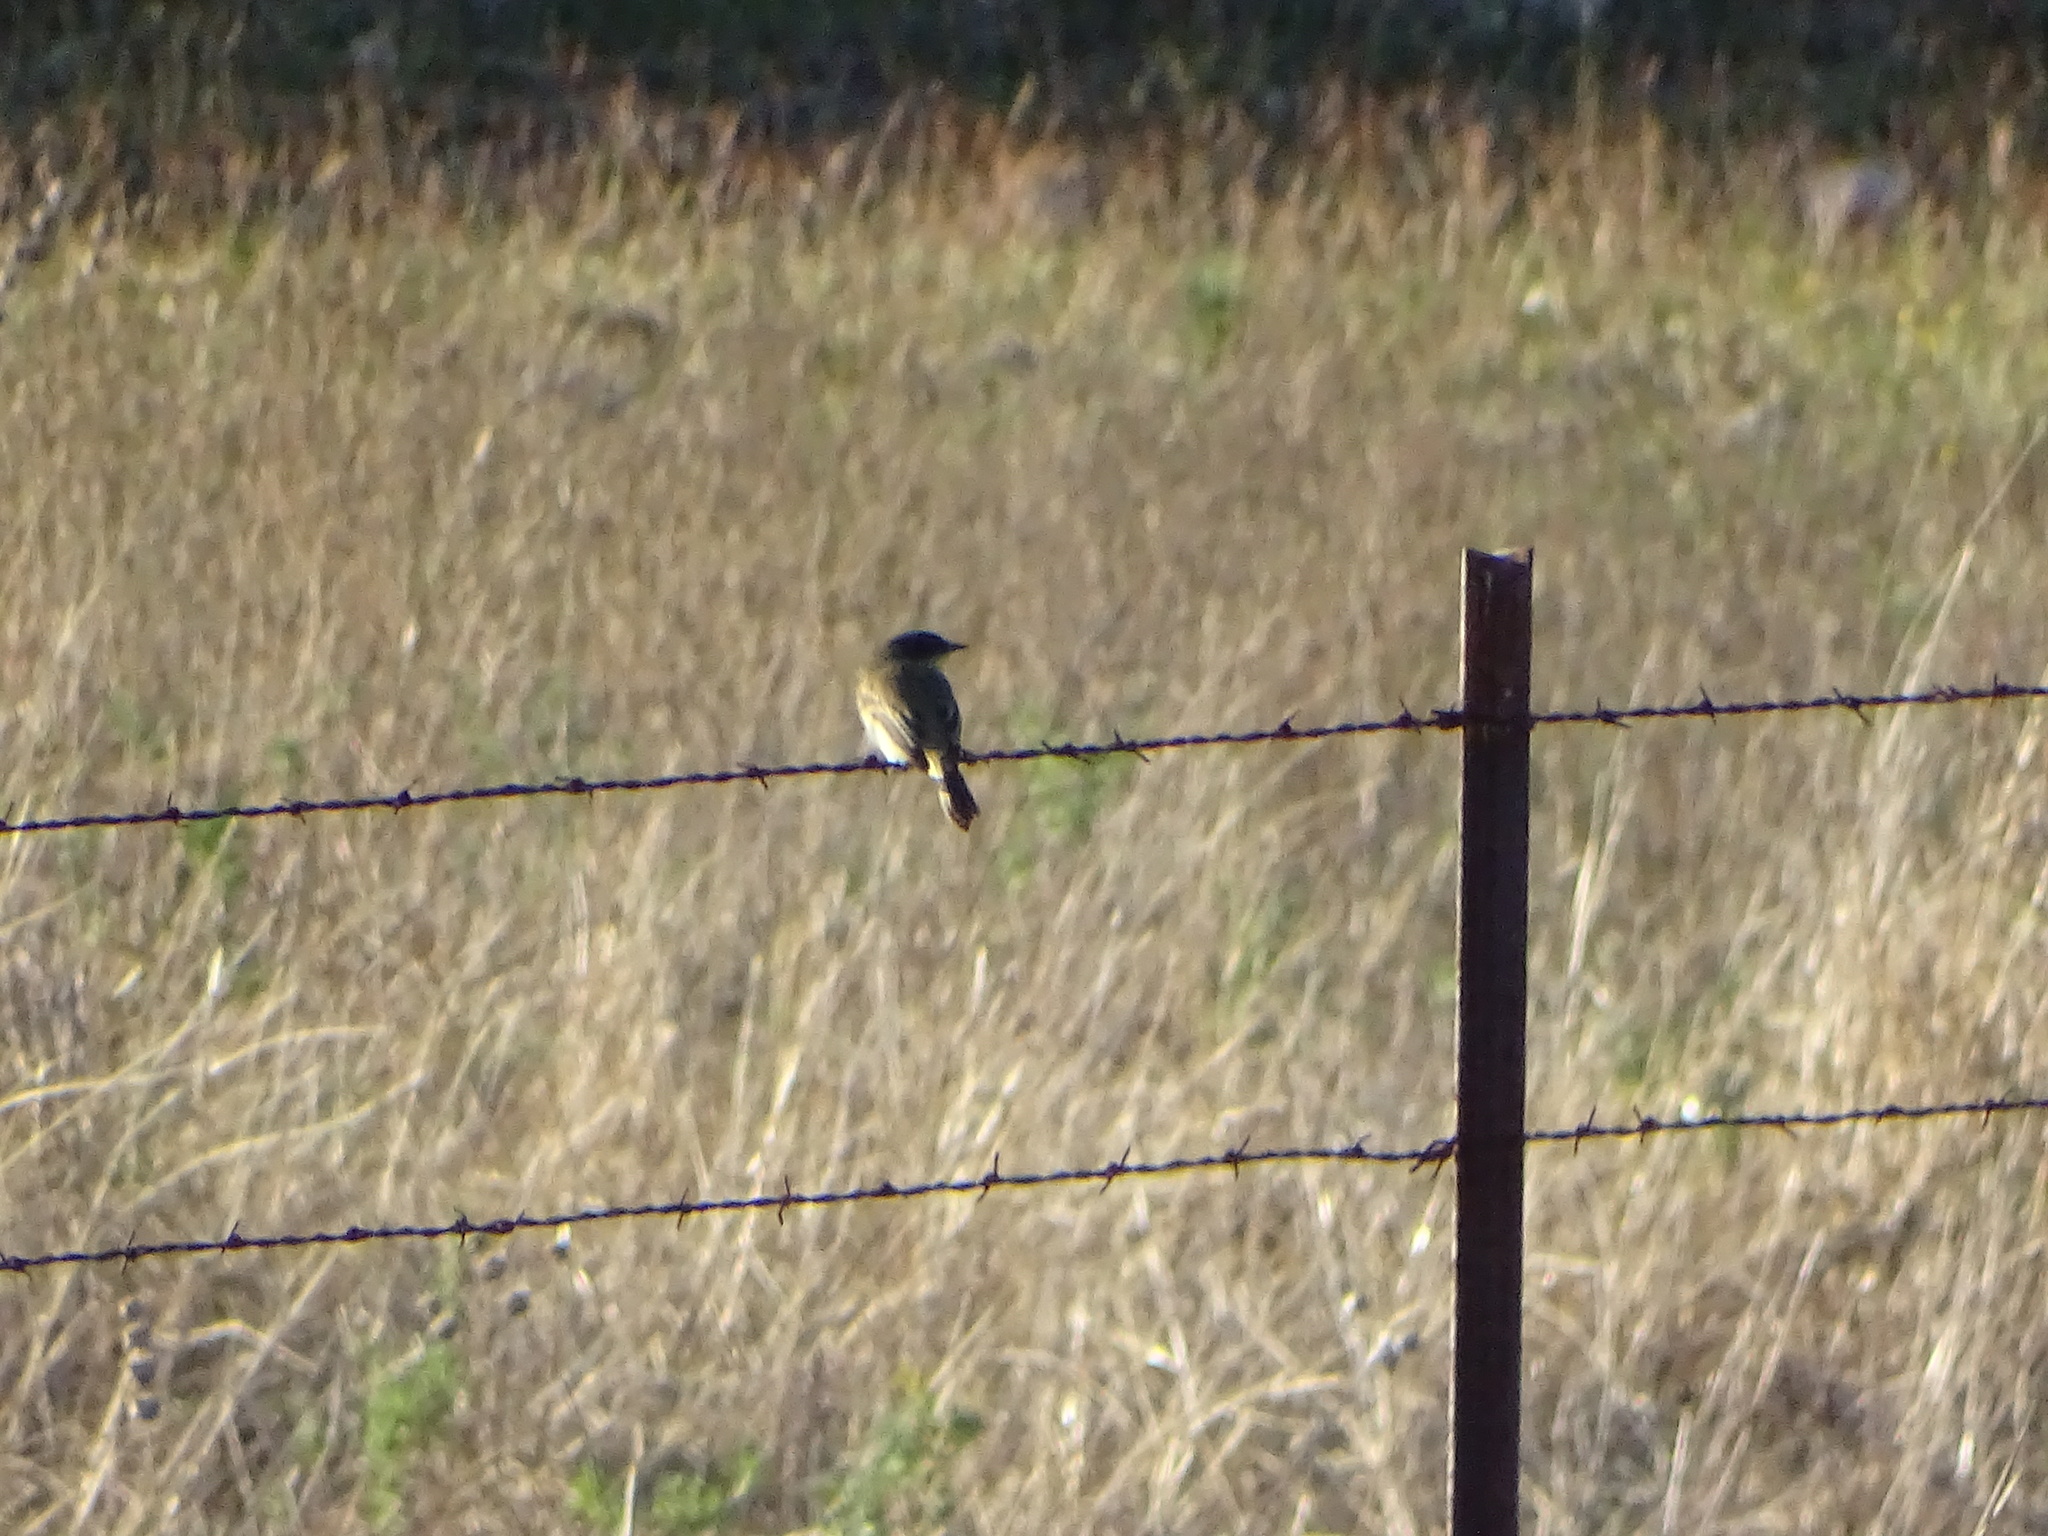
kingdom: Animalia
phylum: Chordata
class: Aves
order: Passeriformes
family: Tyrannidae
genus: Sayornis
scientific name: Sayornis phoebe
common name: Eastern phoebe
